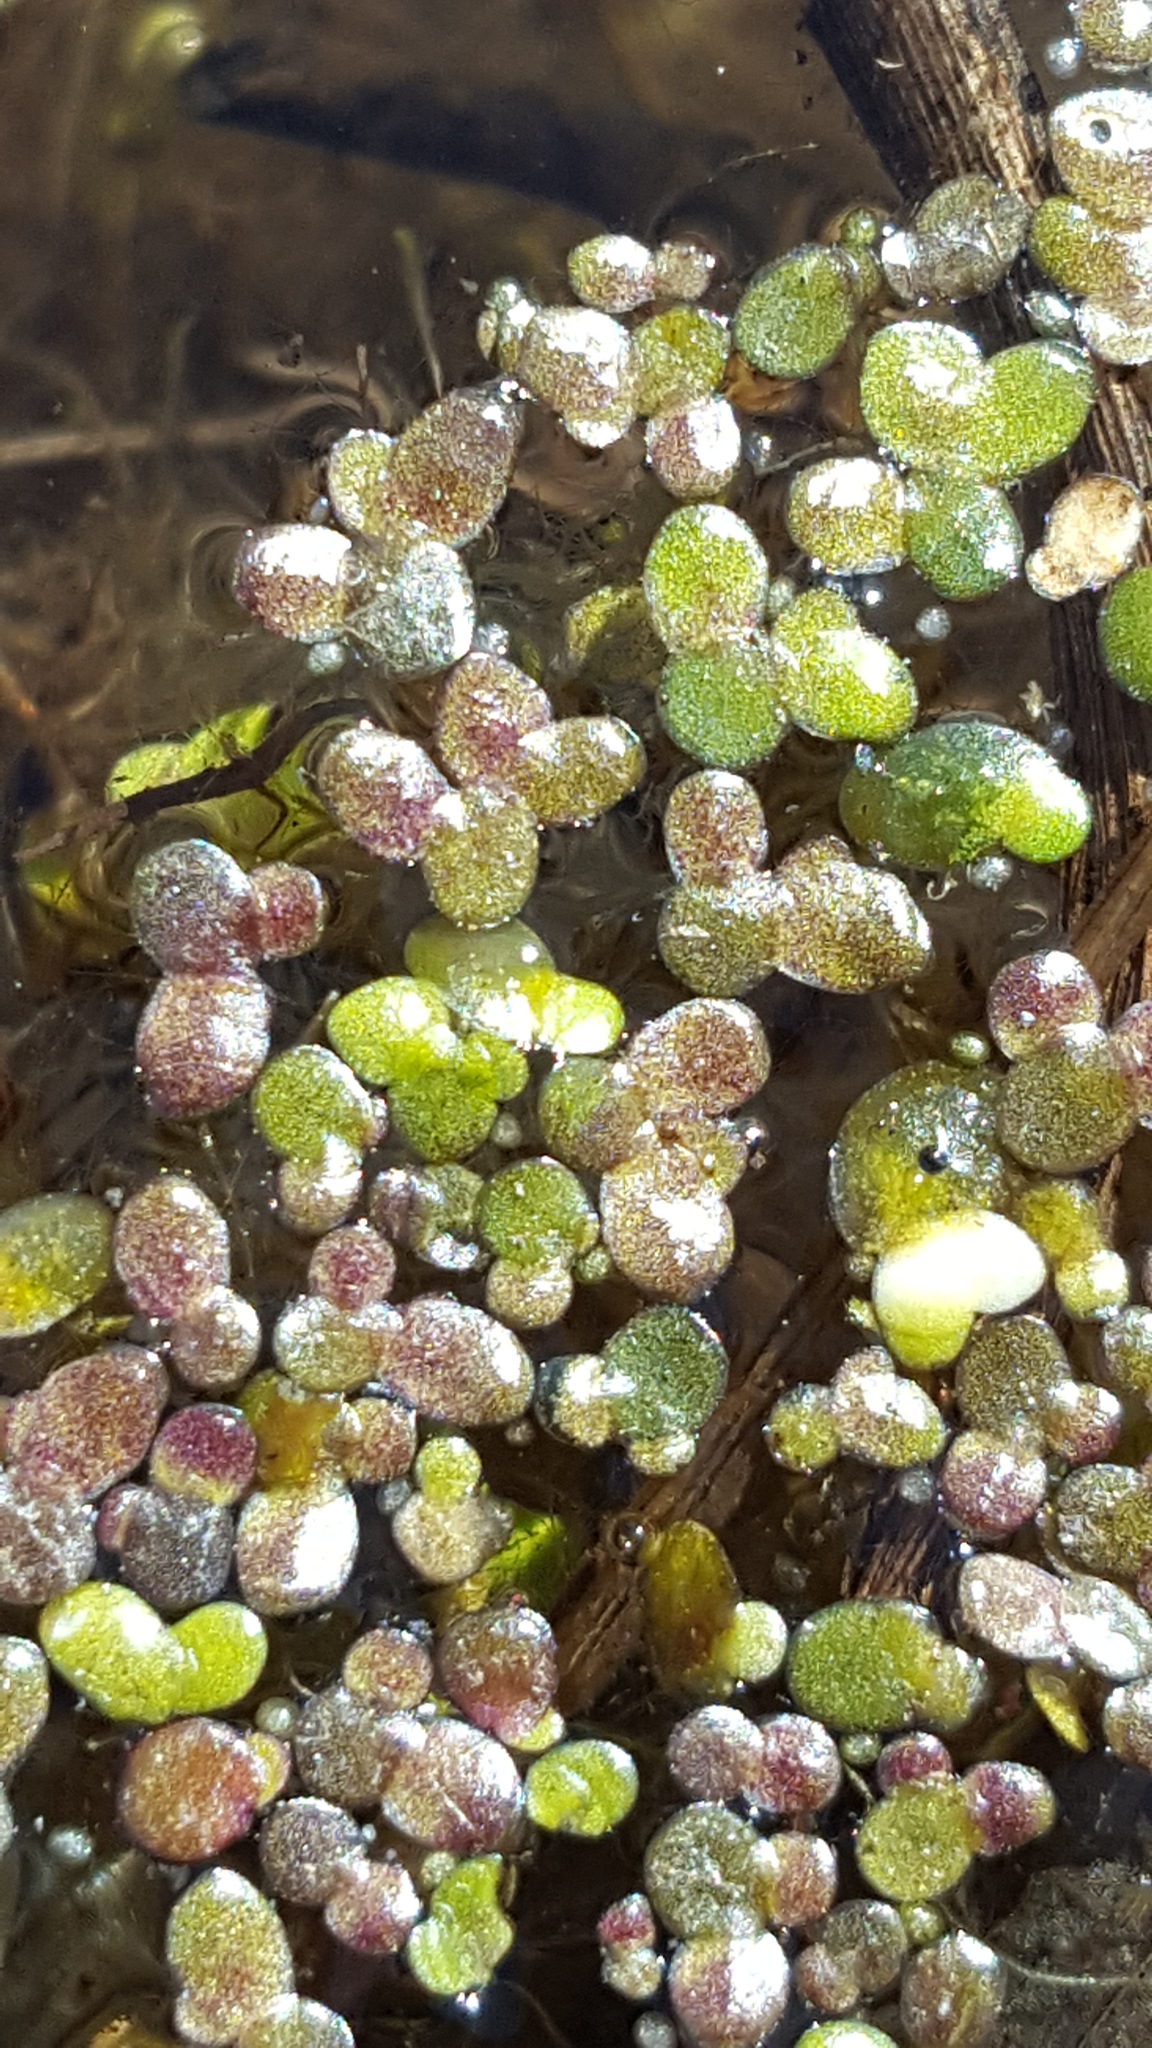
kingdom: Plantae
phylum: Tracheophyta
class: Liliopsida
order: Alismatales
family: Araceae
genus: Lemna
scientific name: Lemna turionifera
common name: Perennial duckweed
